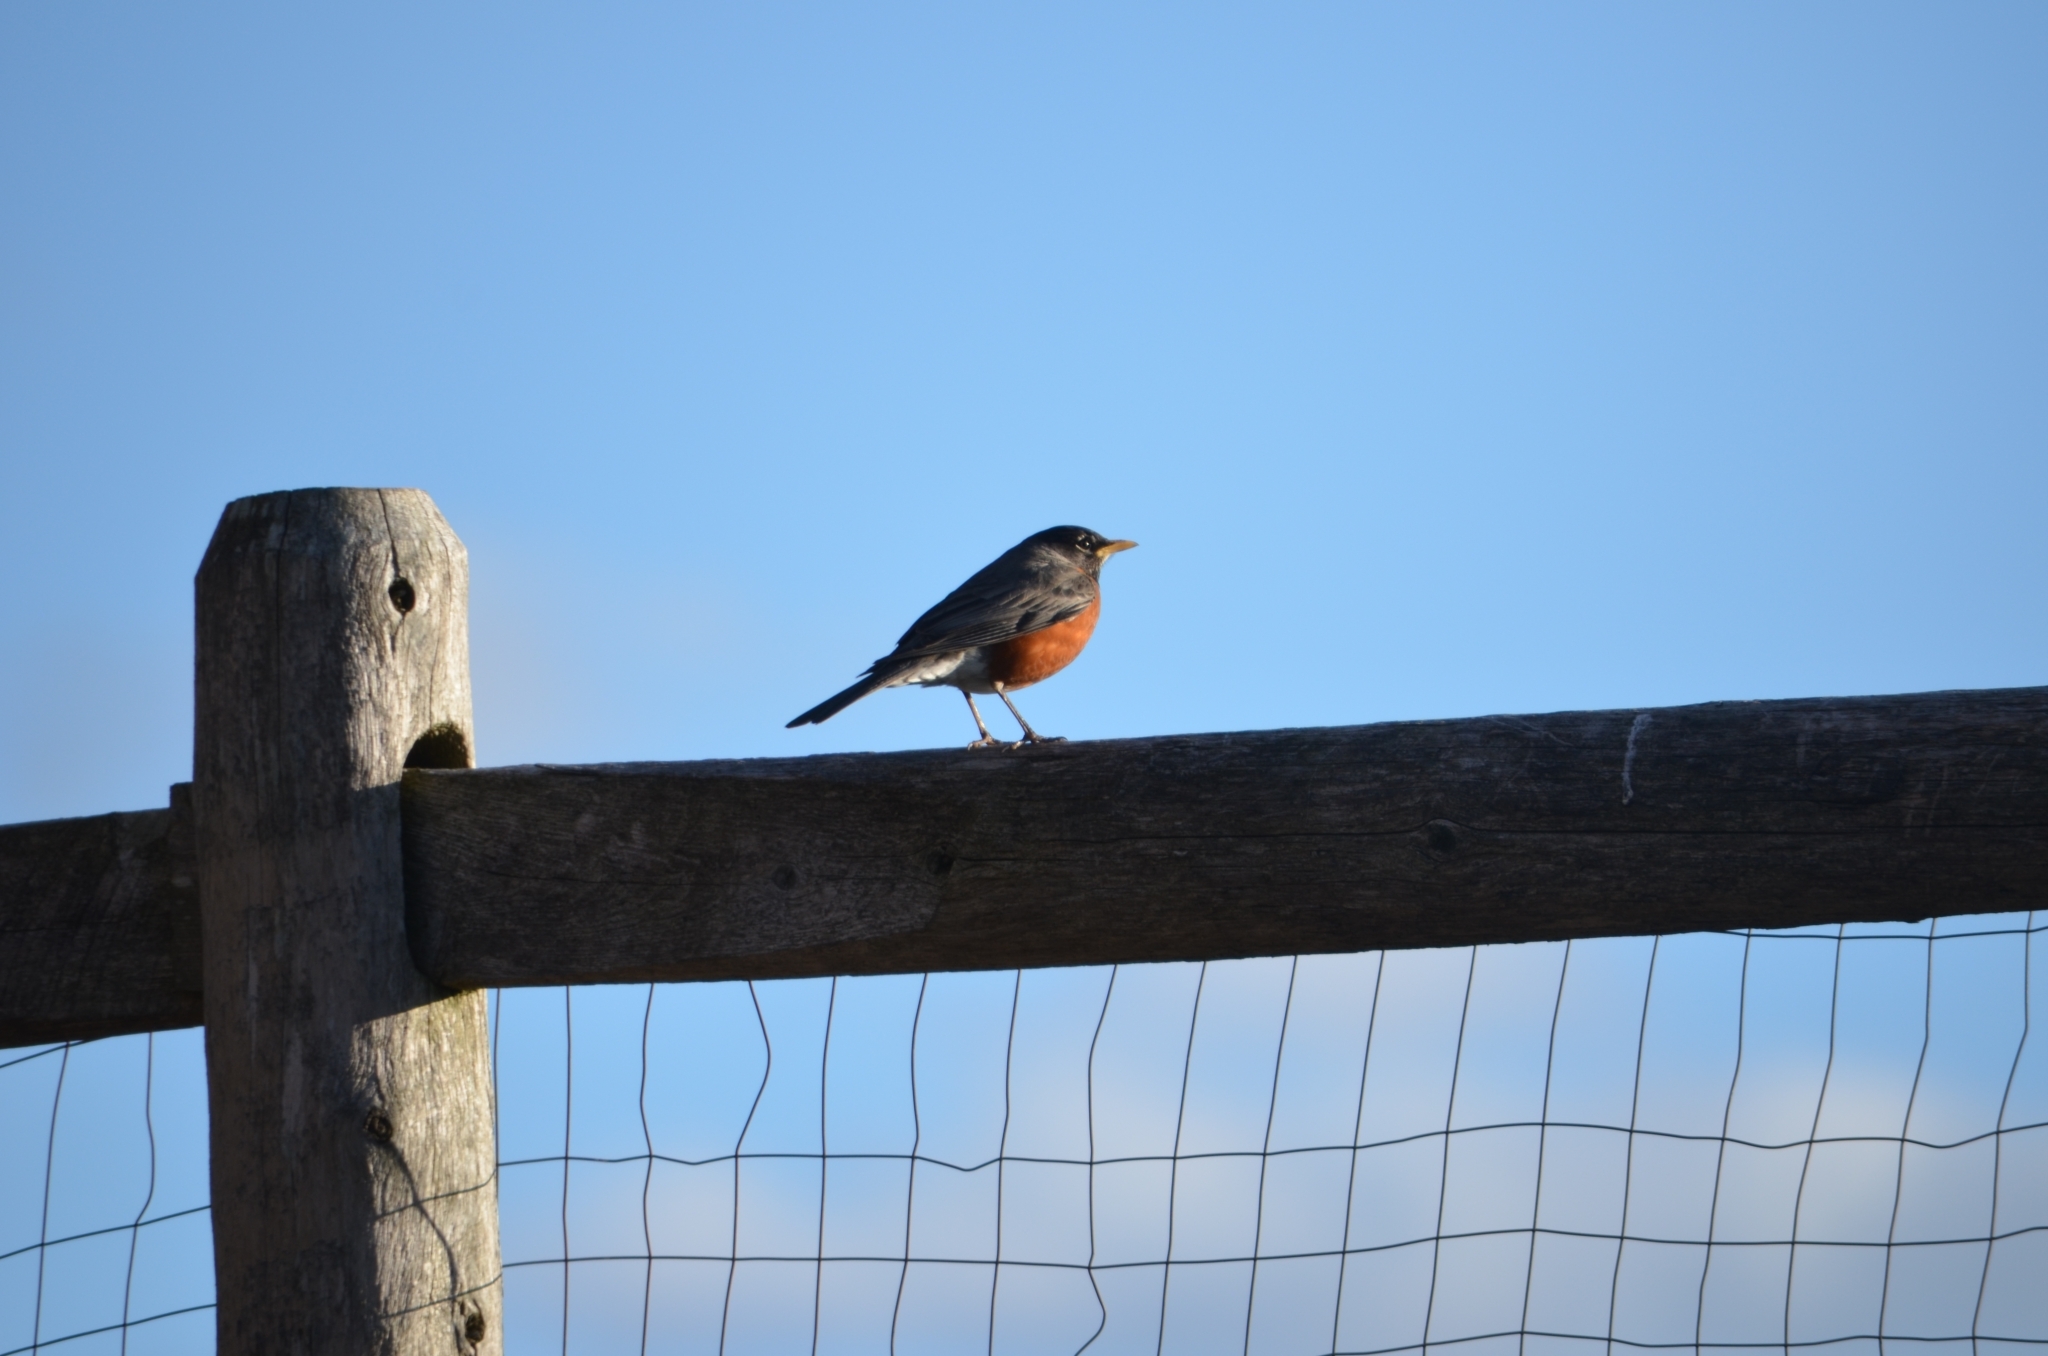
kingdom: Animalia
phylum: Chordata
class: Aves
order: Passeriformes
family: Turdidae
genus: Turdus
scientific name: Turdus migratorius
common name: American robin
